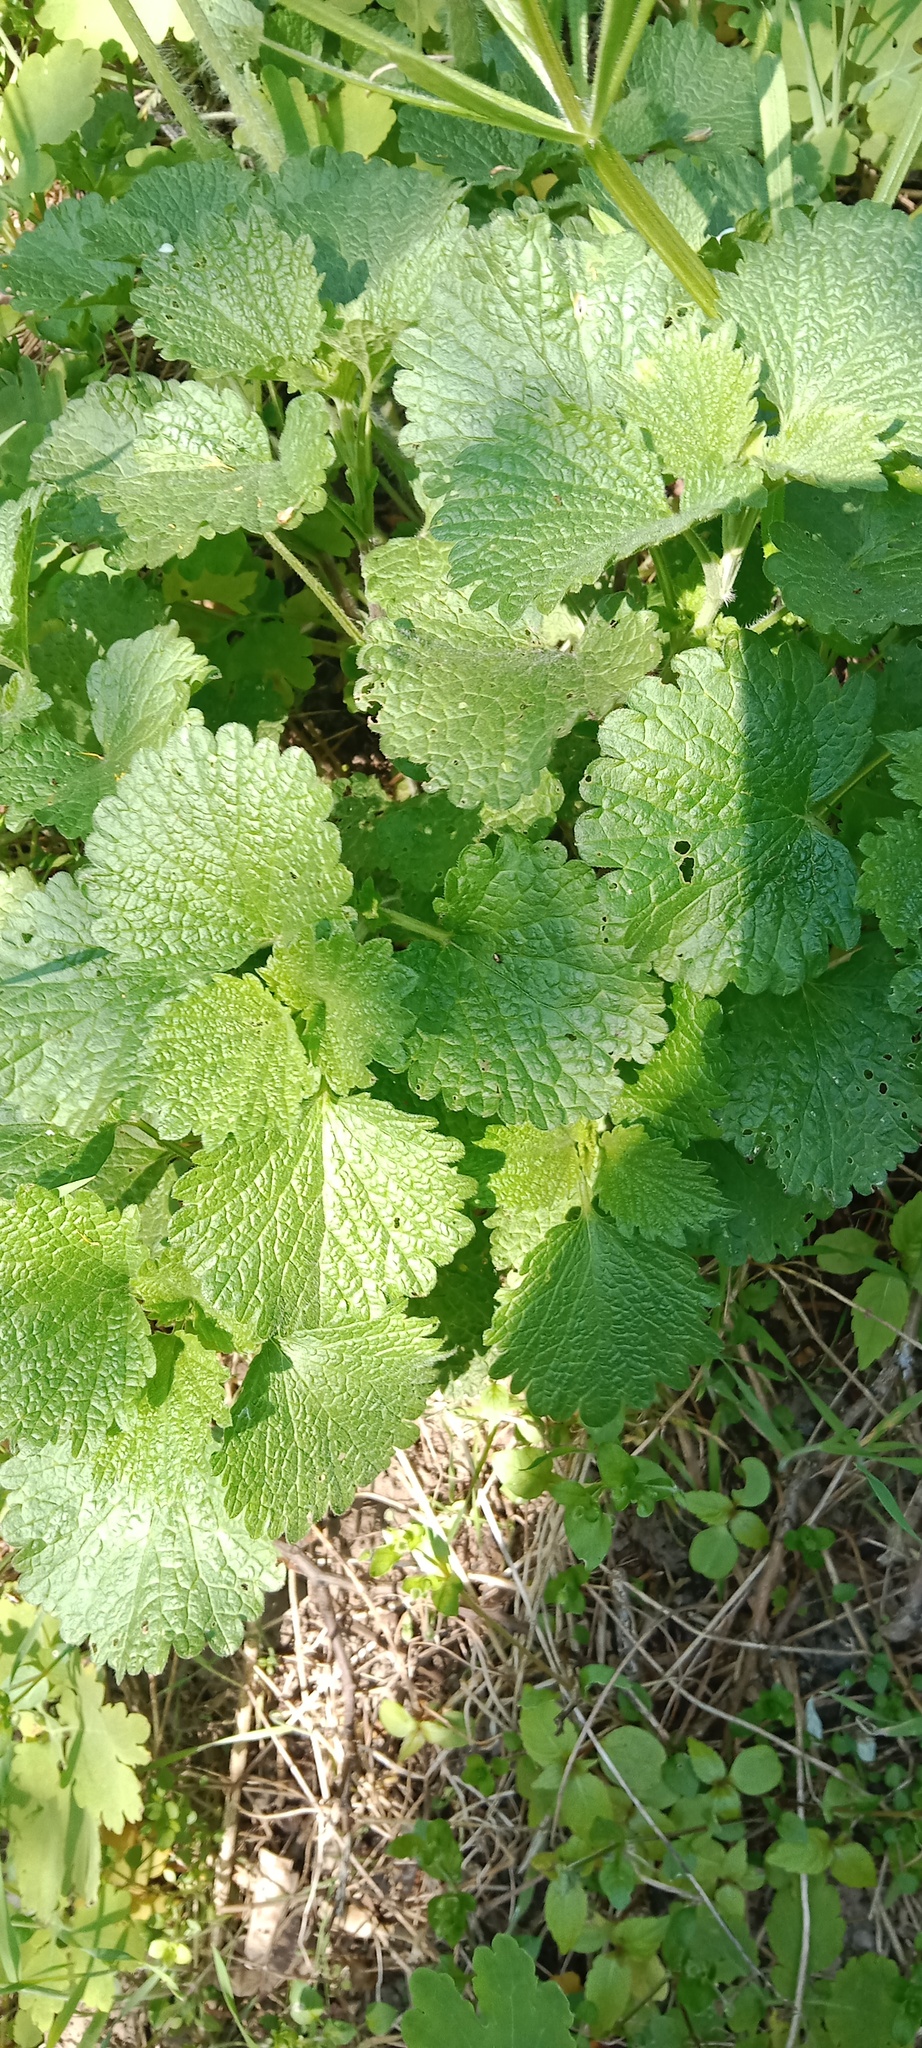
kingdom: Plantae
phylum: Tracheophyta
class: Magnoliopsida
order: Lamiales
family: Lamiaceae
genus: Ballota
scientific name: Ballota nigra
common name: Black horehound
